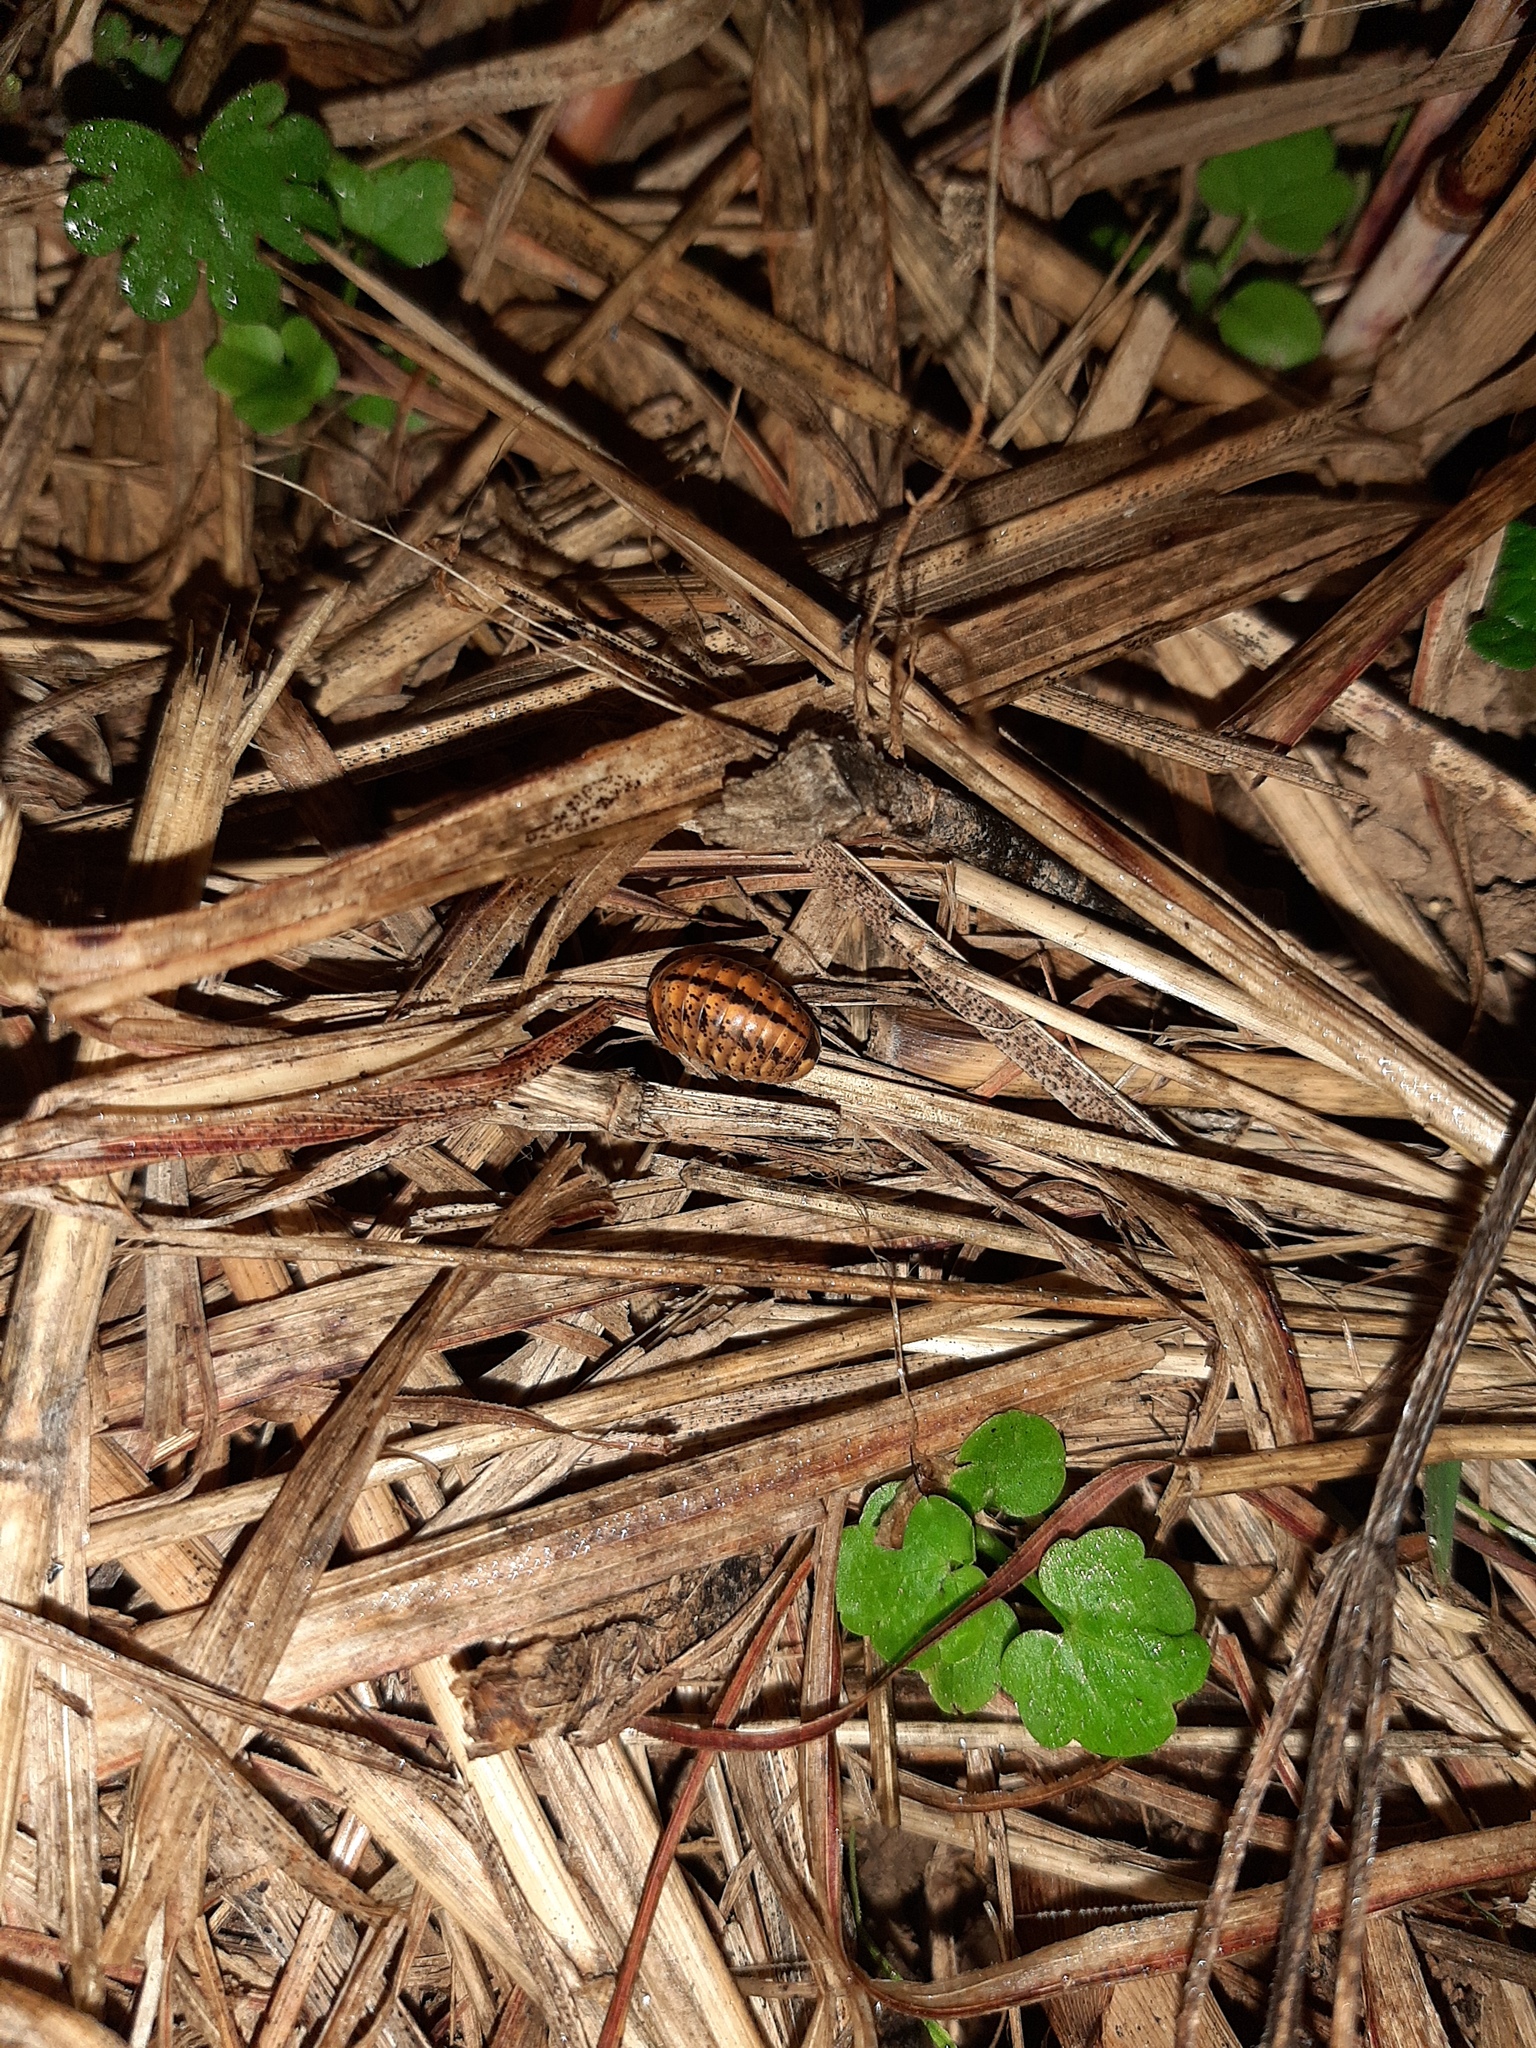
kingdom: Animalia
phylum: Arthropoda
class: Diplopoda
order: Glomerida
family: Glomeridae
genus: Glomeris
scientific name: Glomeris klugii
